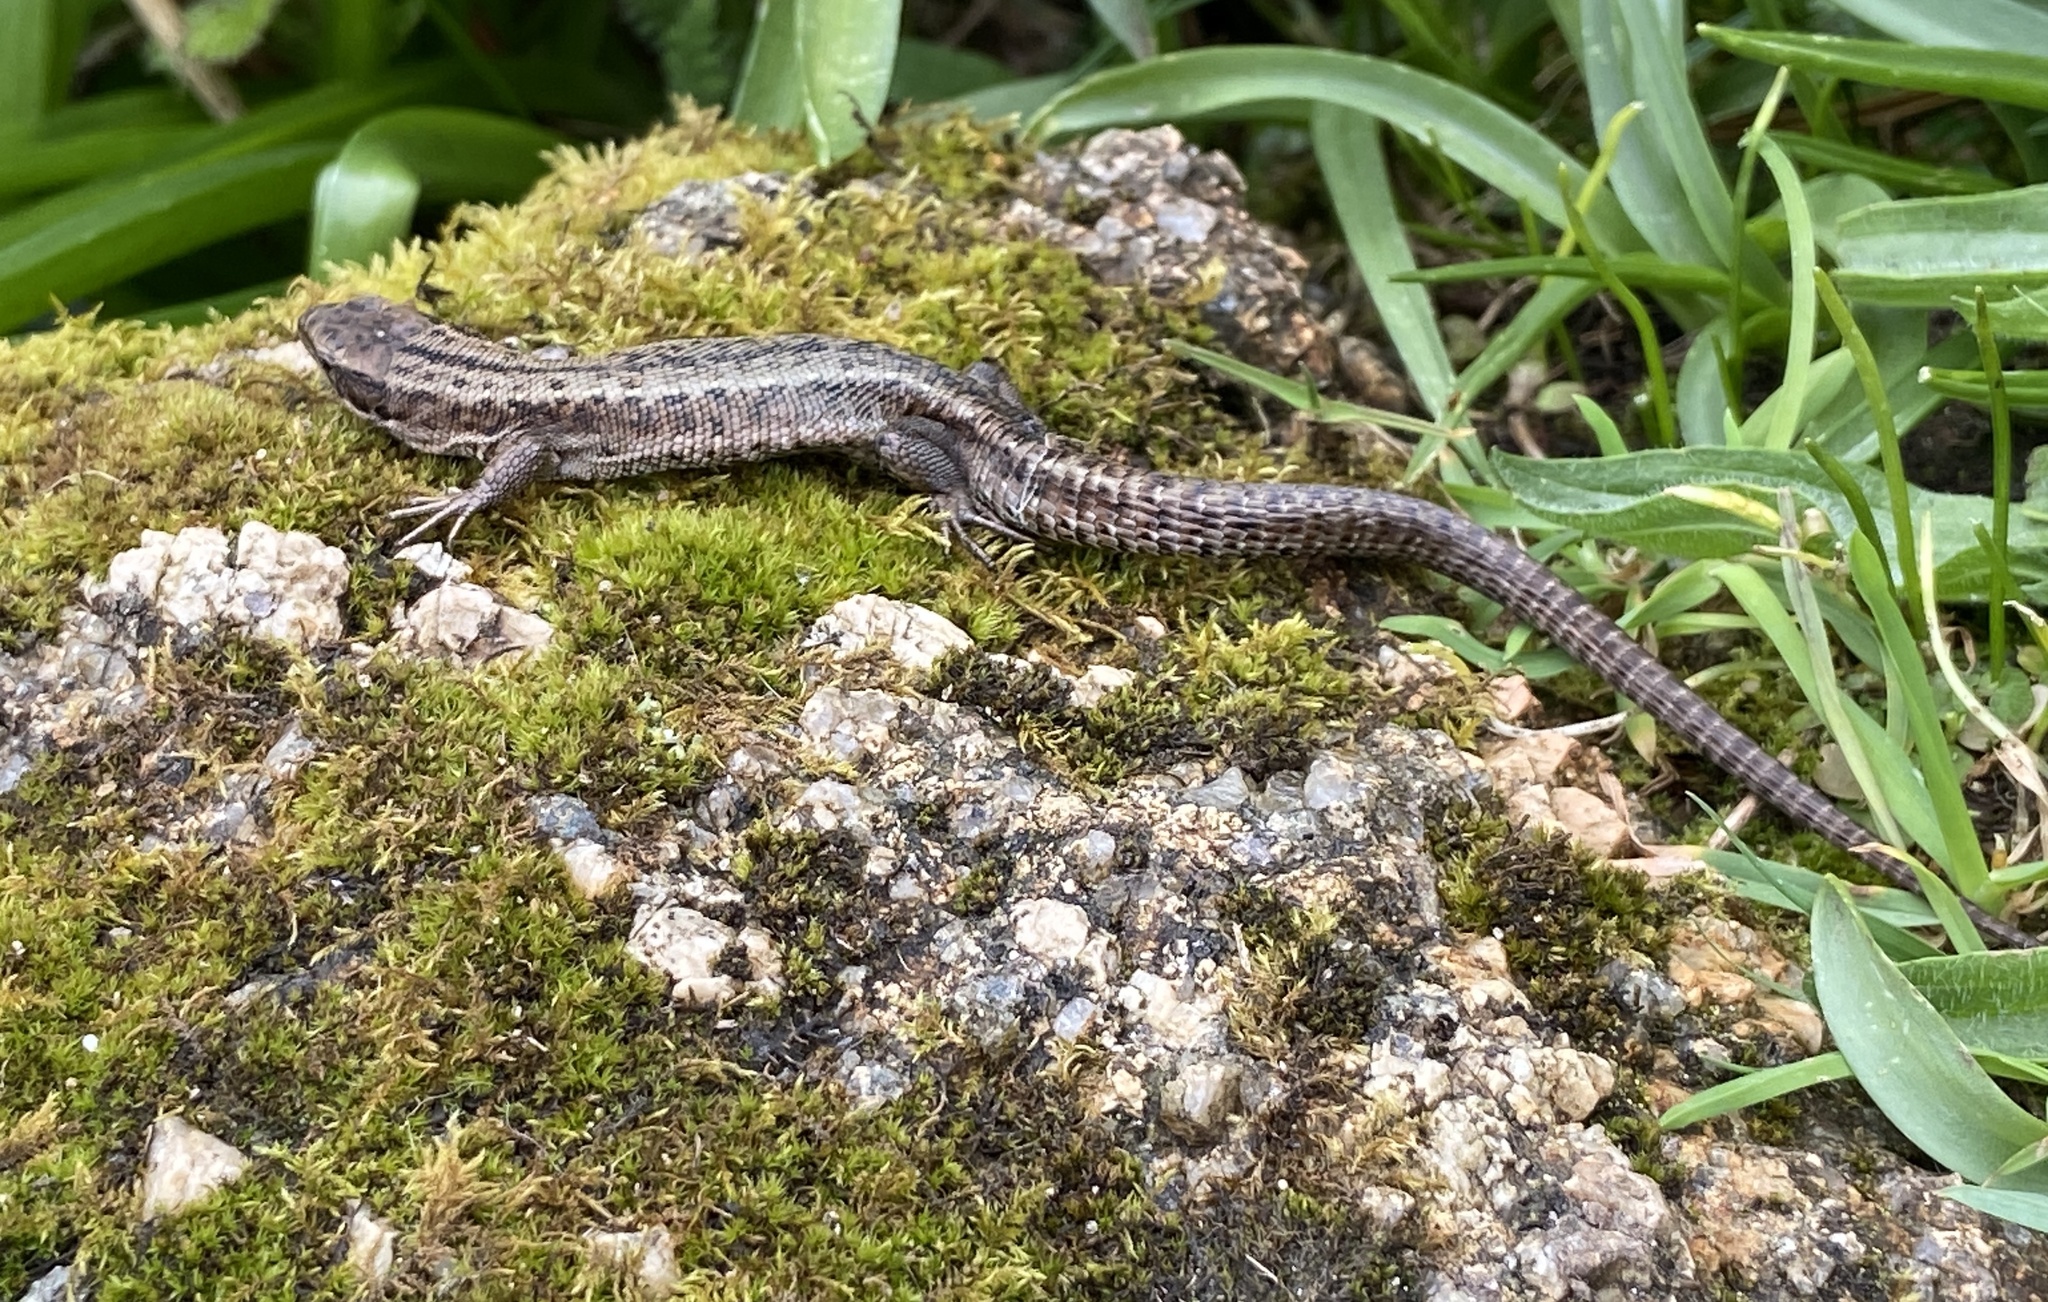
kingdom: Animalia
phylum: Chordata
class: Squamata
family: Lacertidae
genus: Zootoca
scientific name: Zootoca vivipara
